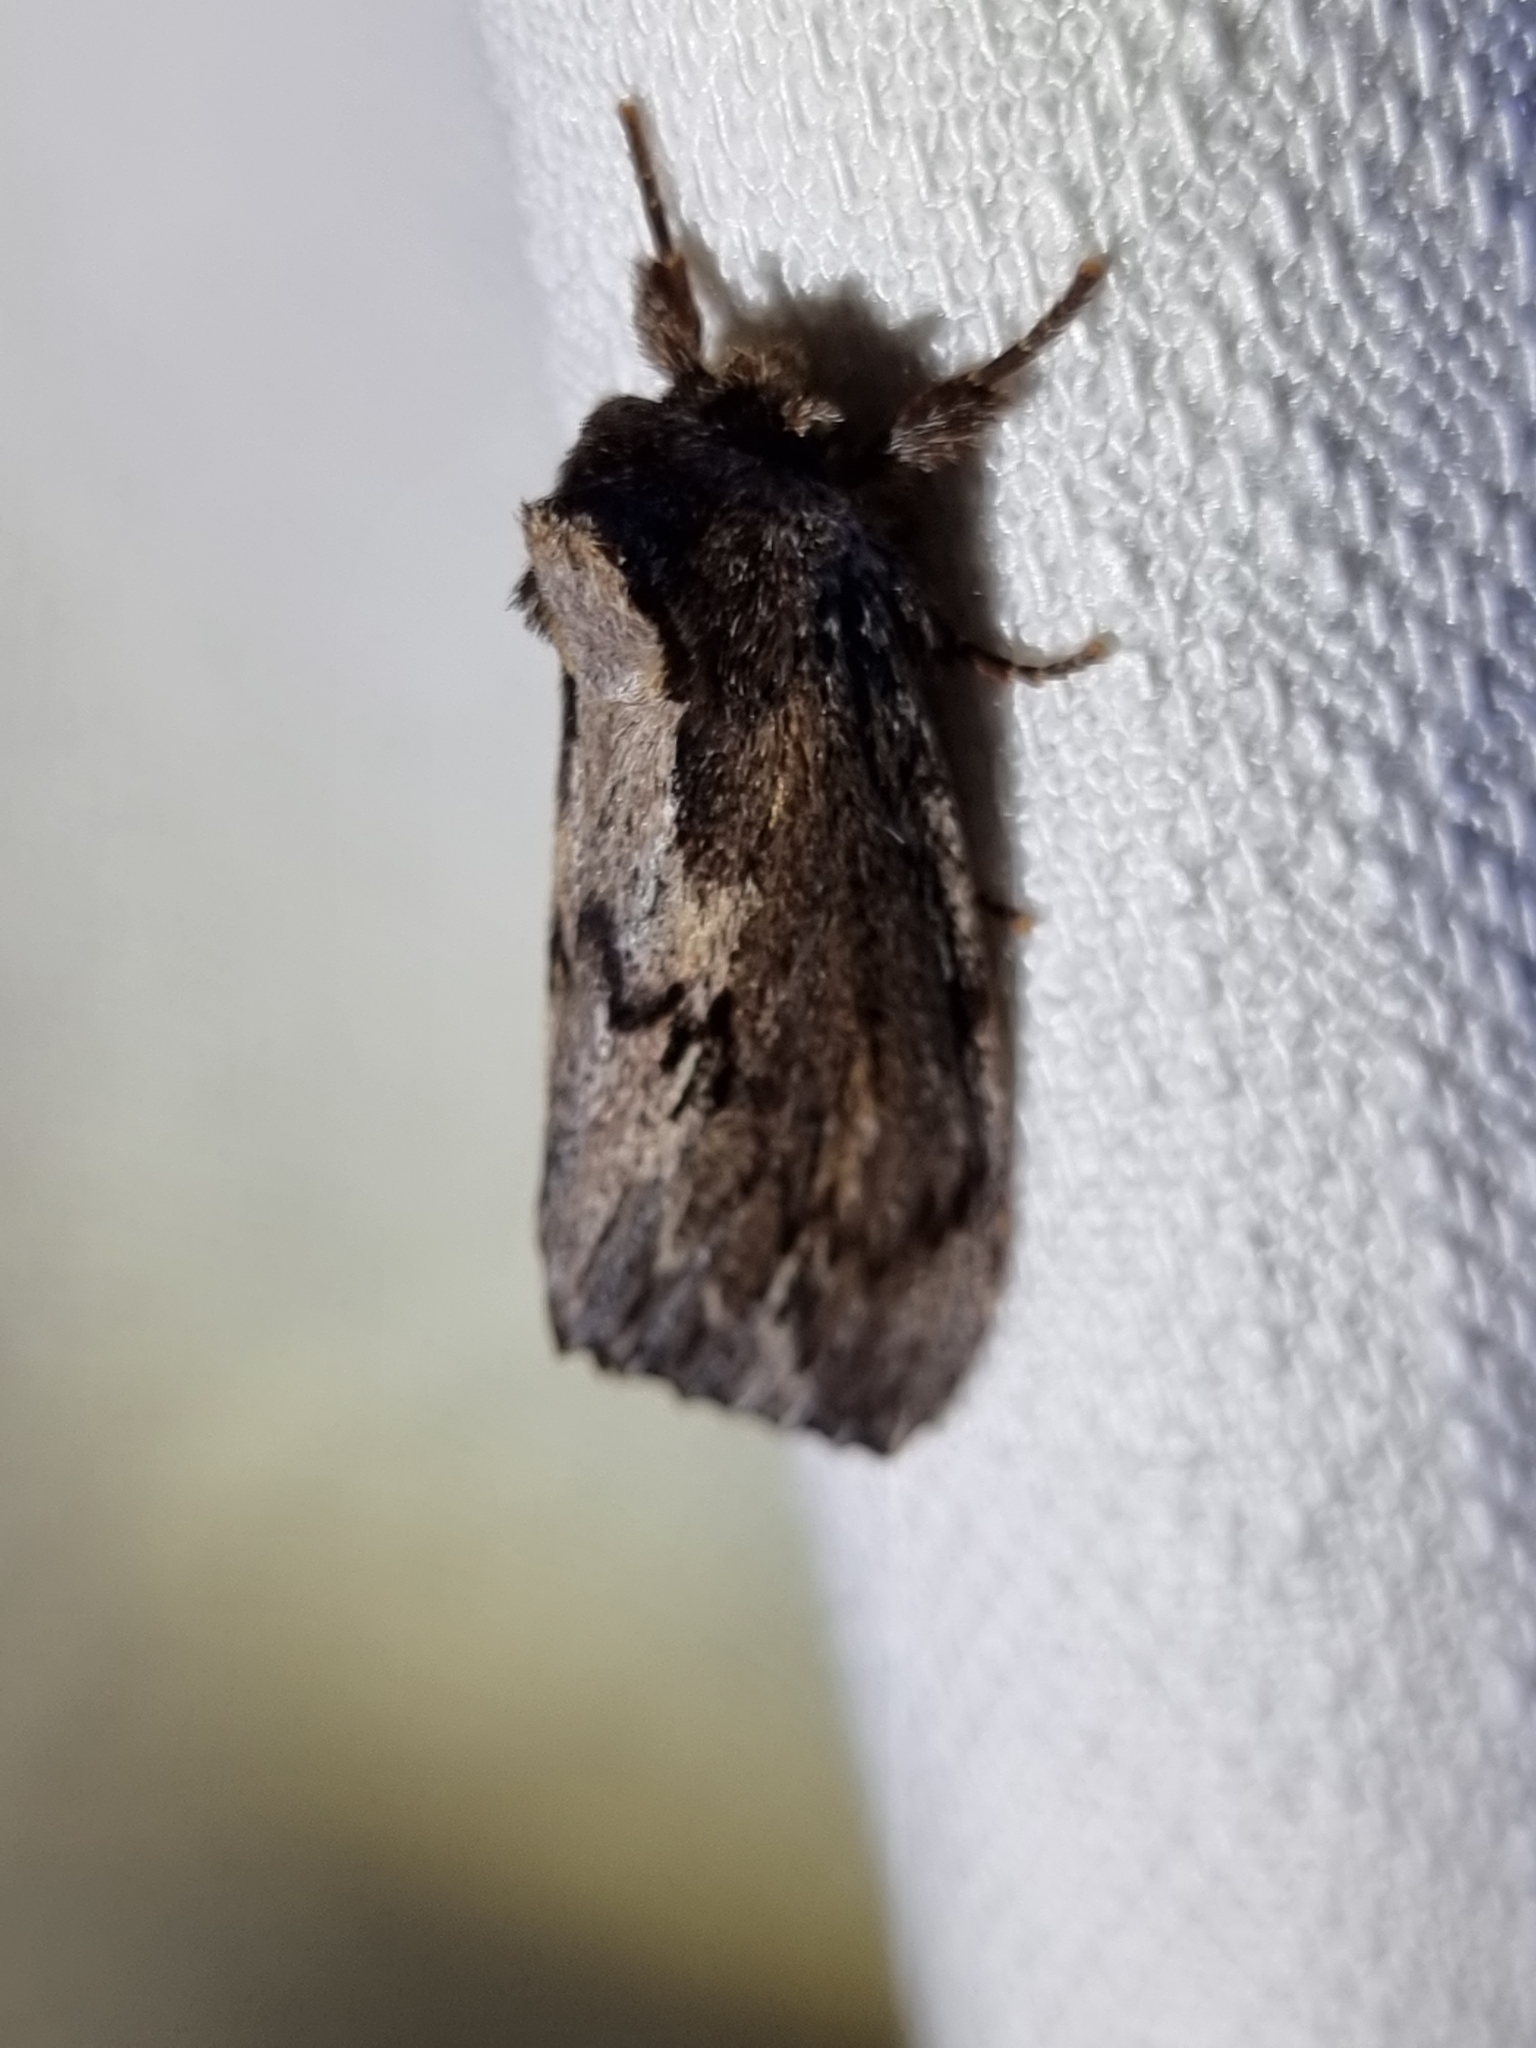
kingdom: Animalia
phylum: Arthropoda
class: Insecta
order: Lepidoptera
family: Notodontidae
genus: Hylaeora
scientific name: Hylaeora capucina
